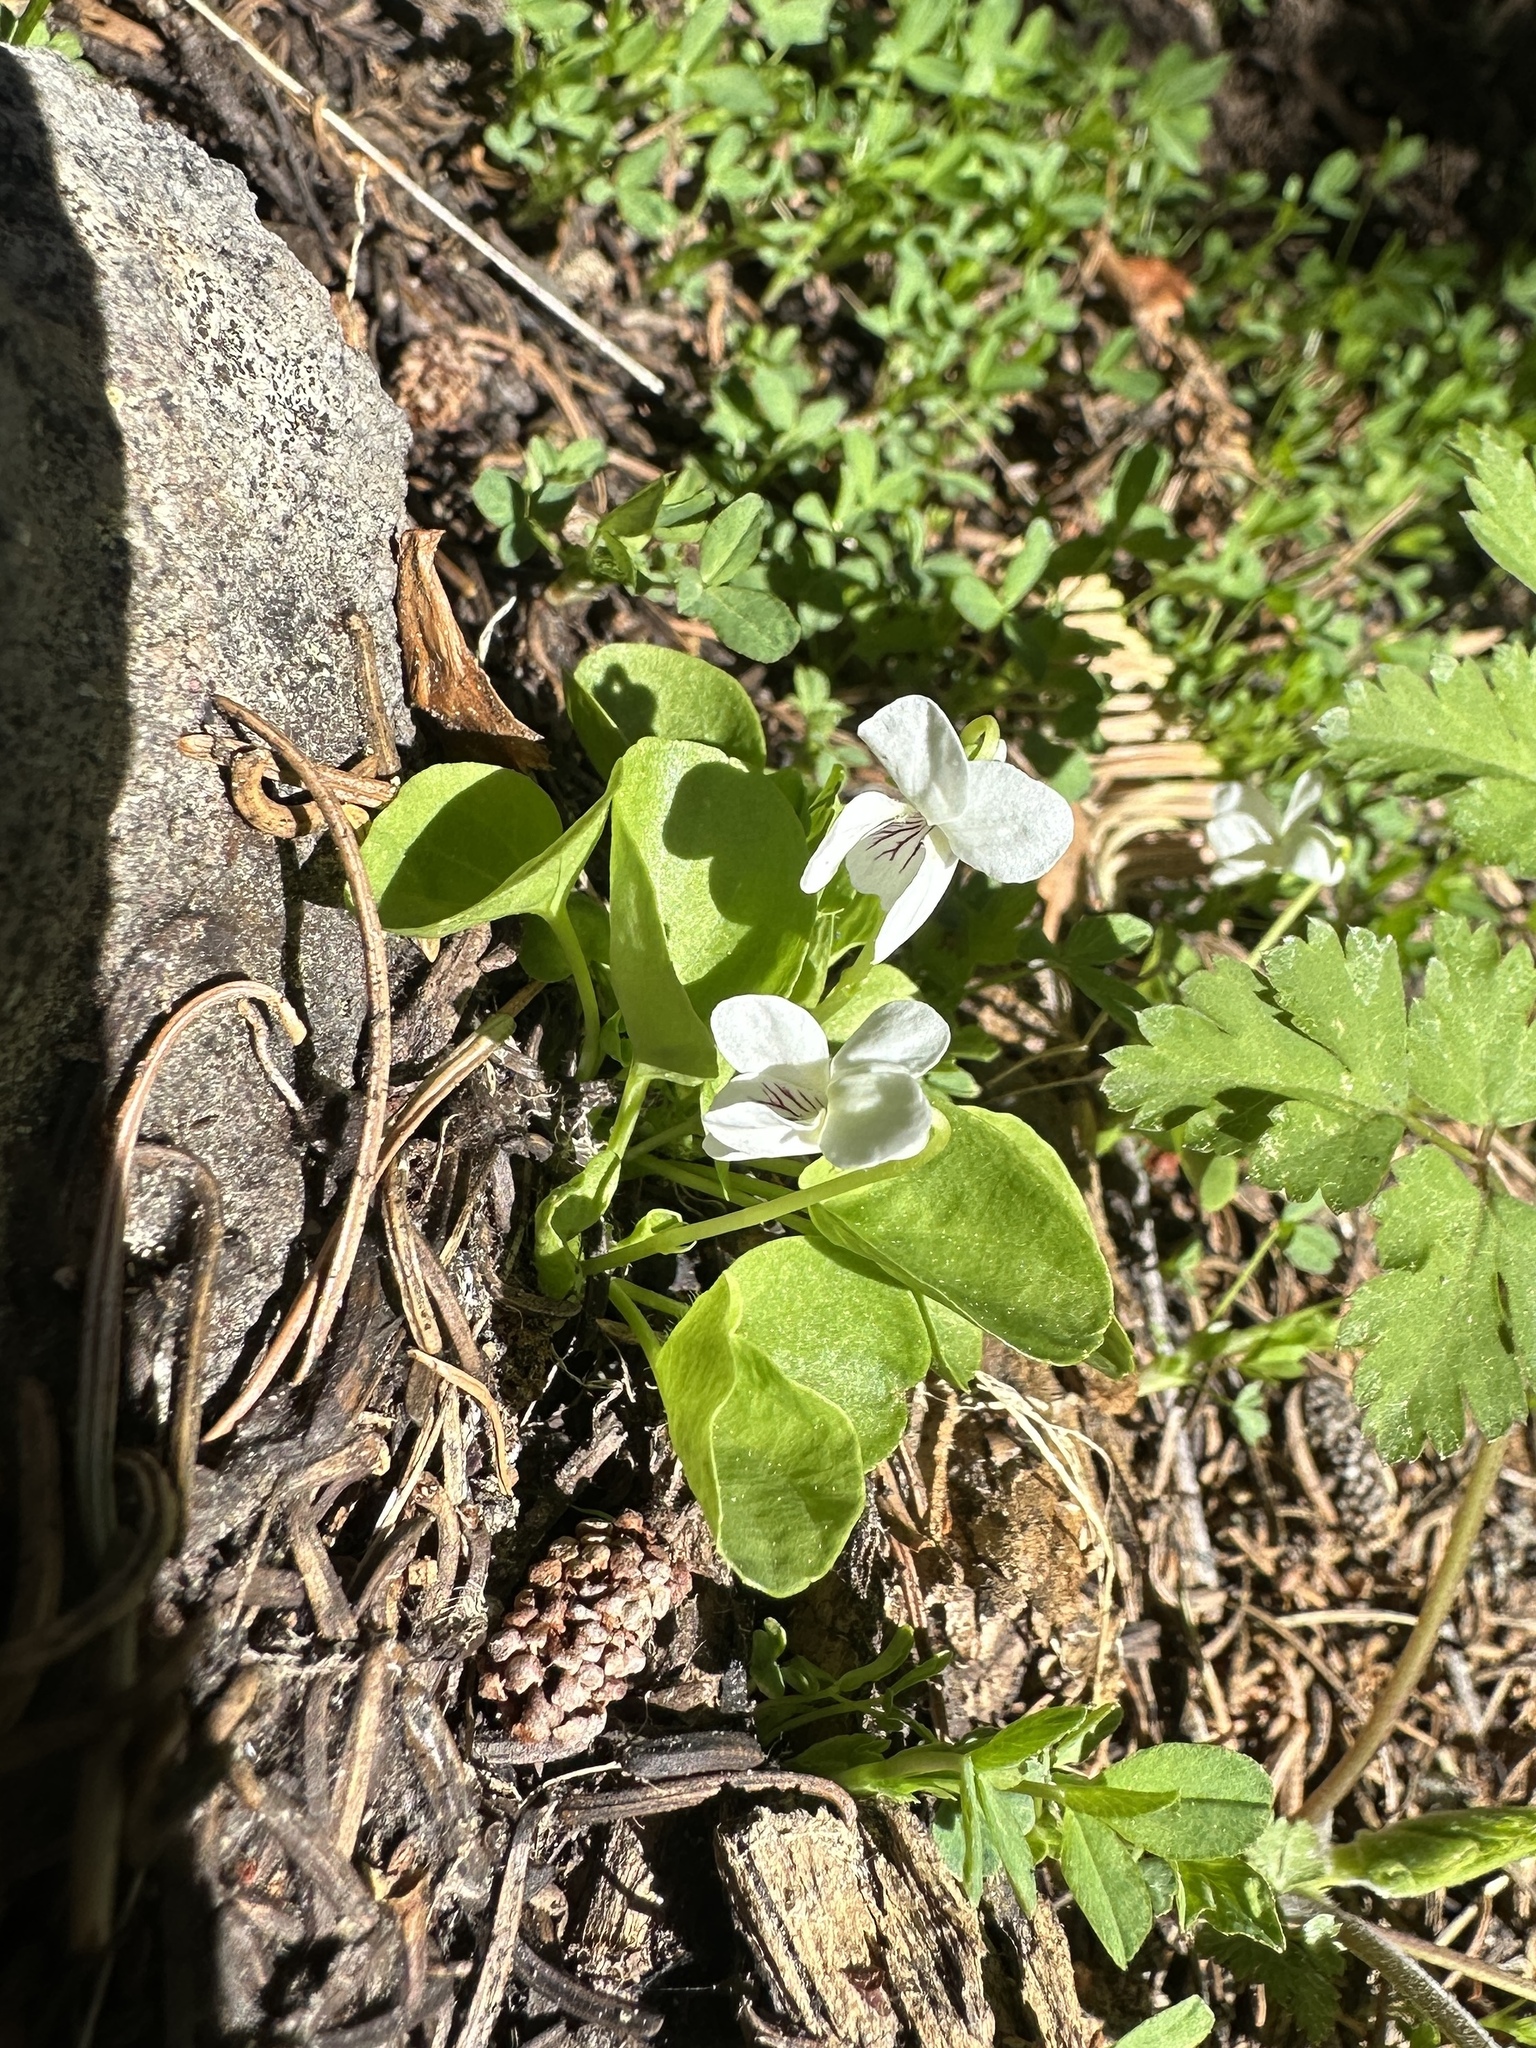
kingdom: Plantae
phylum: Tracheophyta
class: Magnoliopsida
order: Malpighiales
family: Violaceae
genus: Viola
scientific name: Viola macloskeyi
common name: Macloskey's violet
